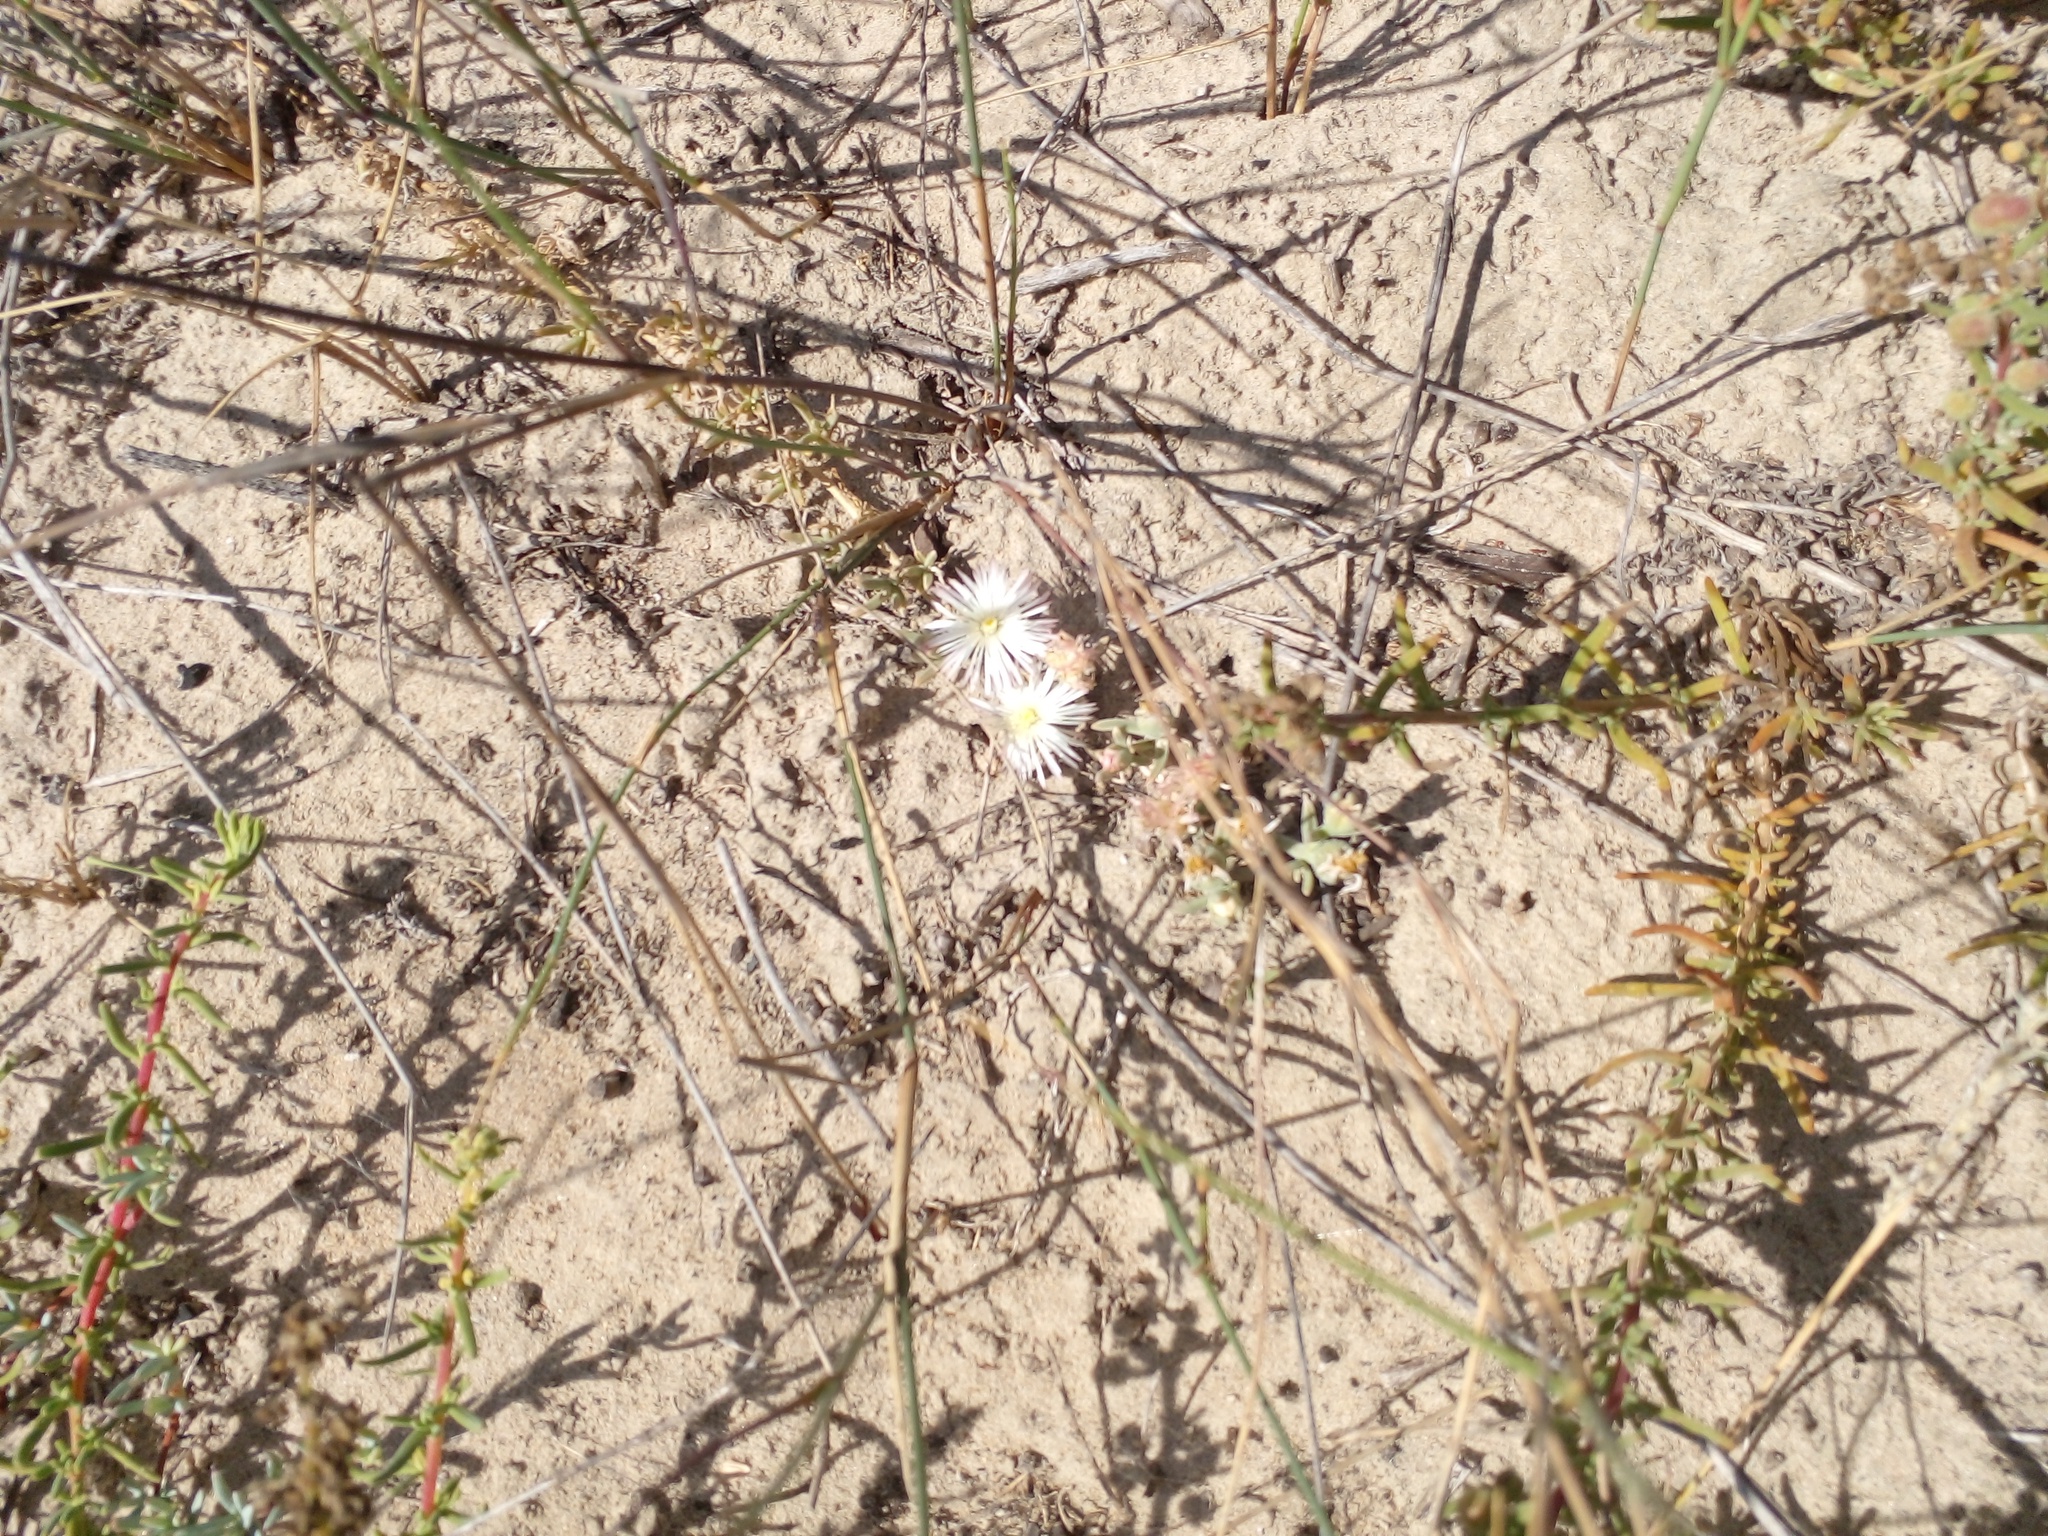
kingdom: Plantae
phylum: Tracheophyta
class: Magnoliopsida
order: Caryophyllales
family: Aizoaceae
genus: Mesembryanthemum
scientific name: Mesembryanthemum canaliculatum
